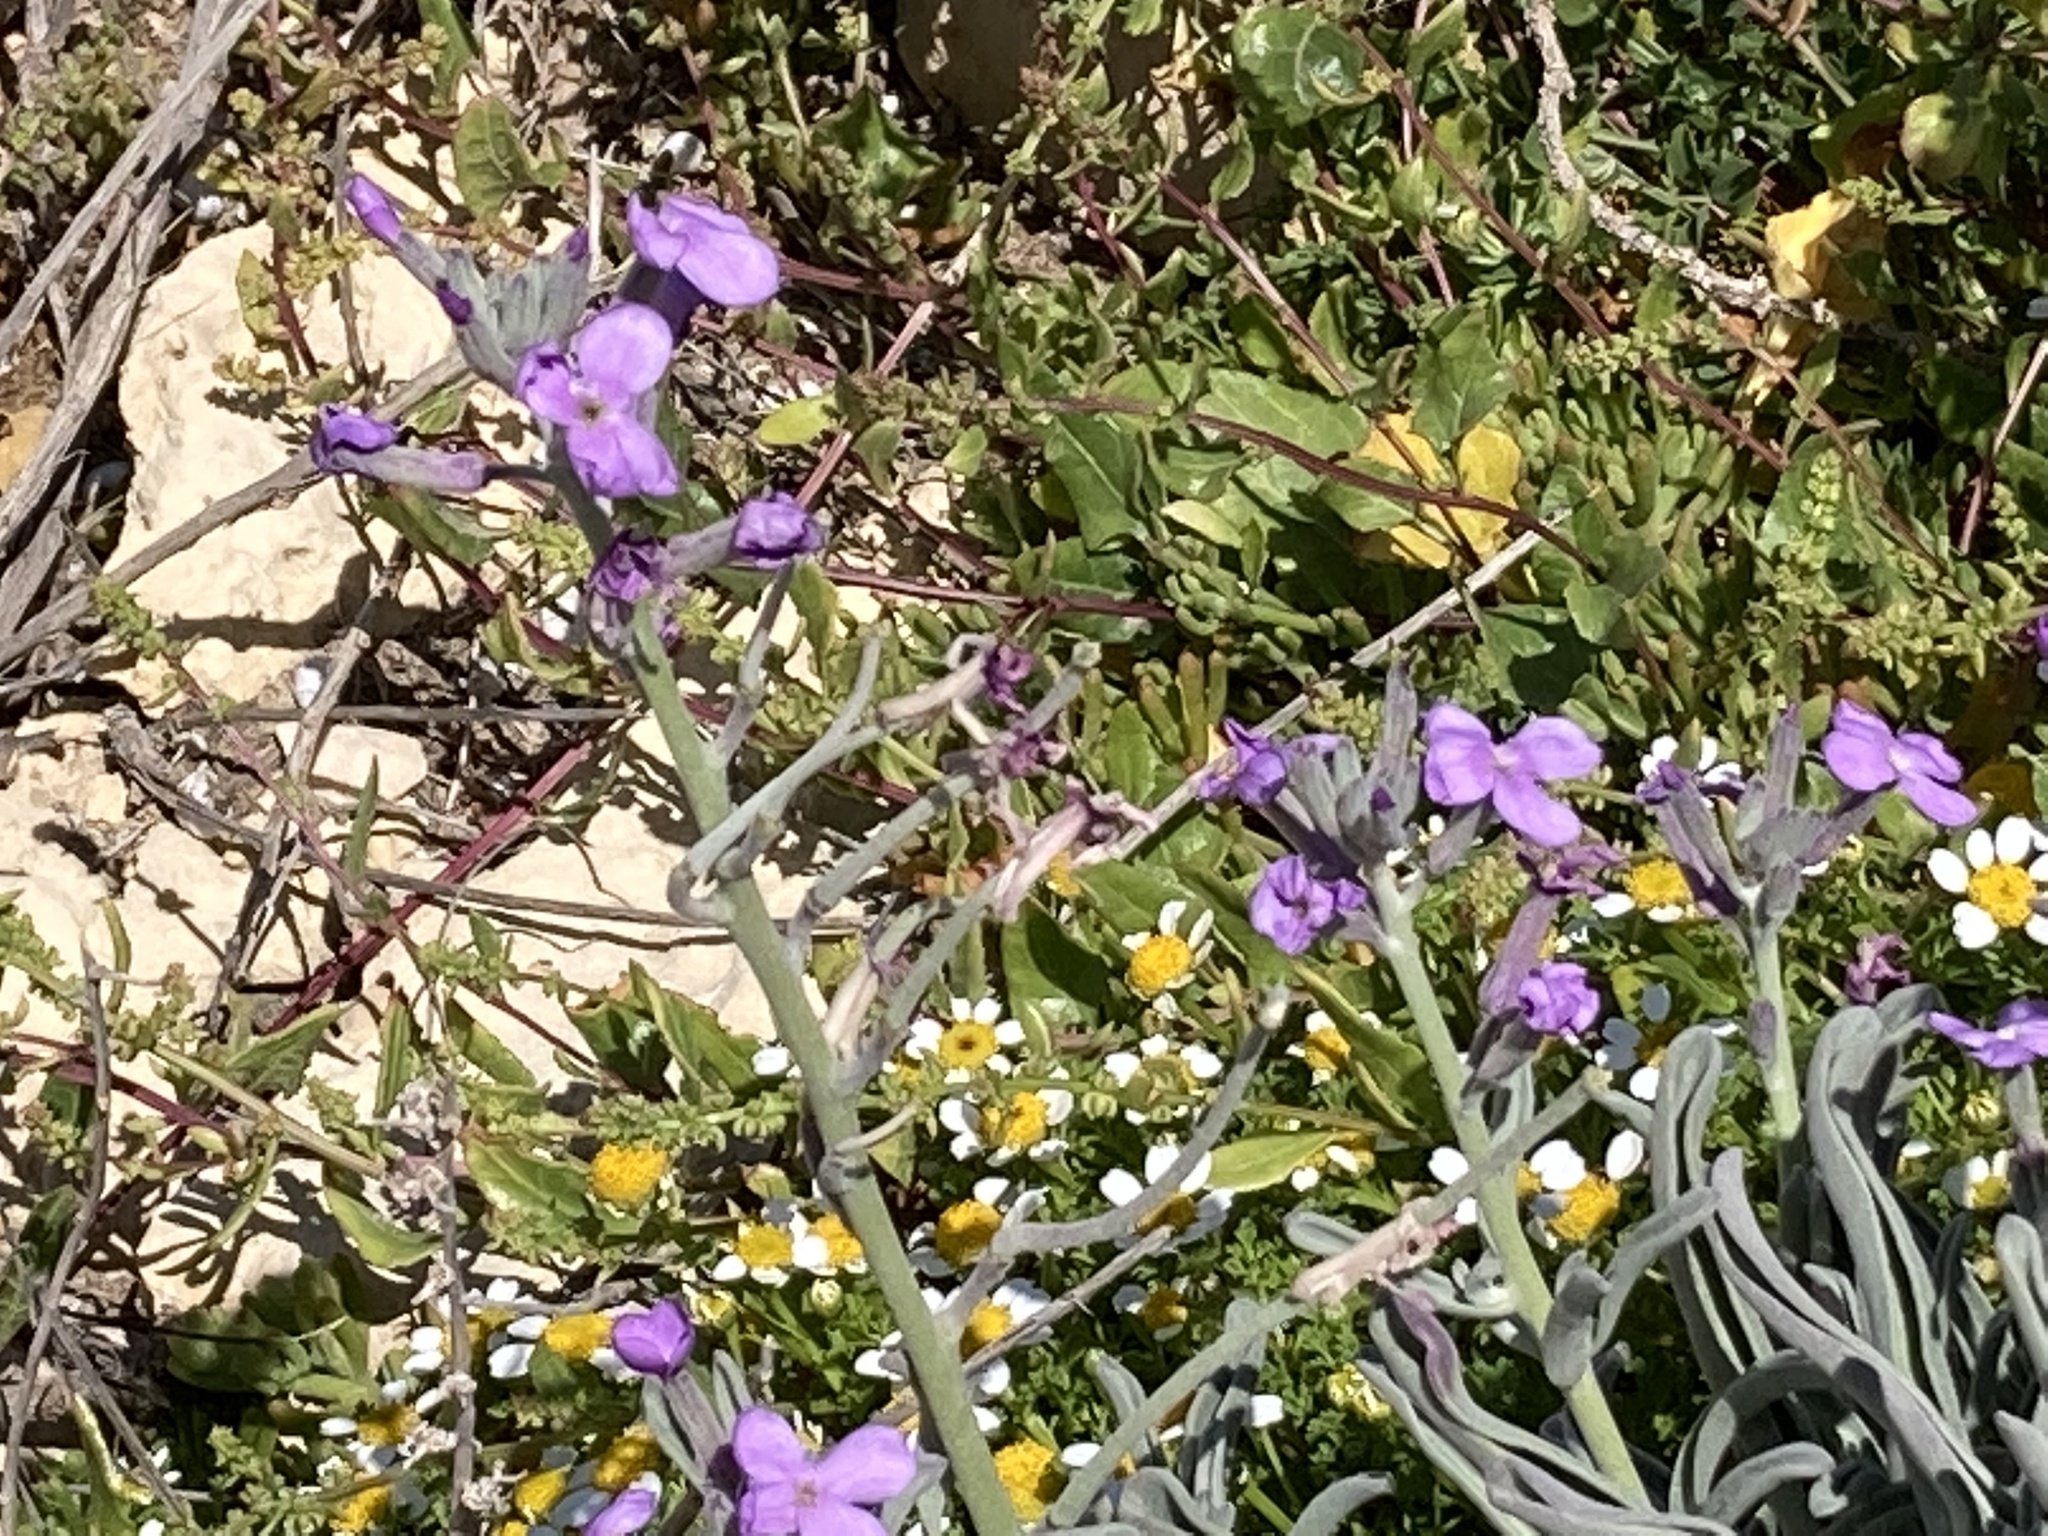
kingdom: Plantae
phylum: Tracheophyta
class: Magnoliopsida
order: Brassicales
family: Brassicaceae
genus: Matthiola
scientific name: Matthiola incana
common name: Hoary stock
